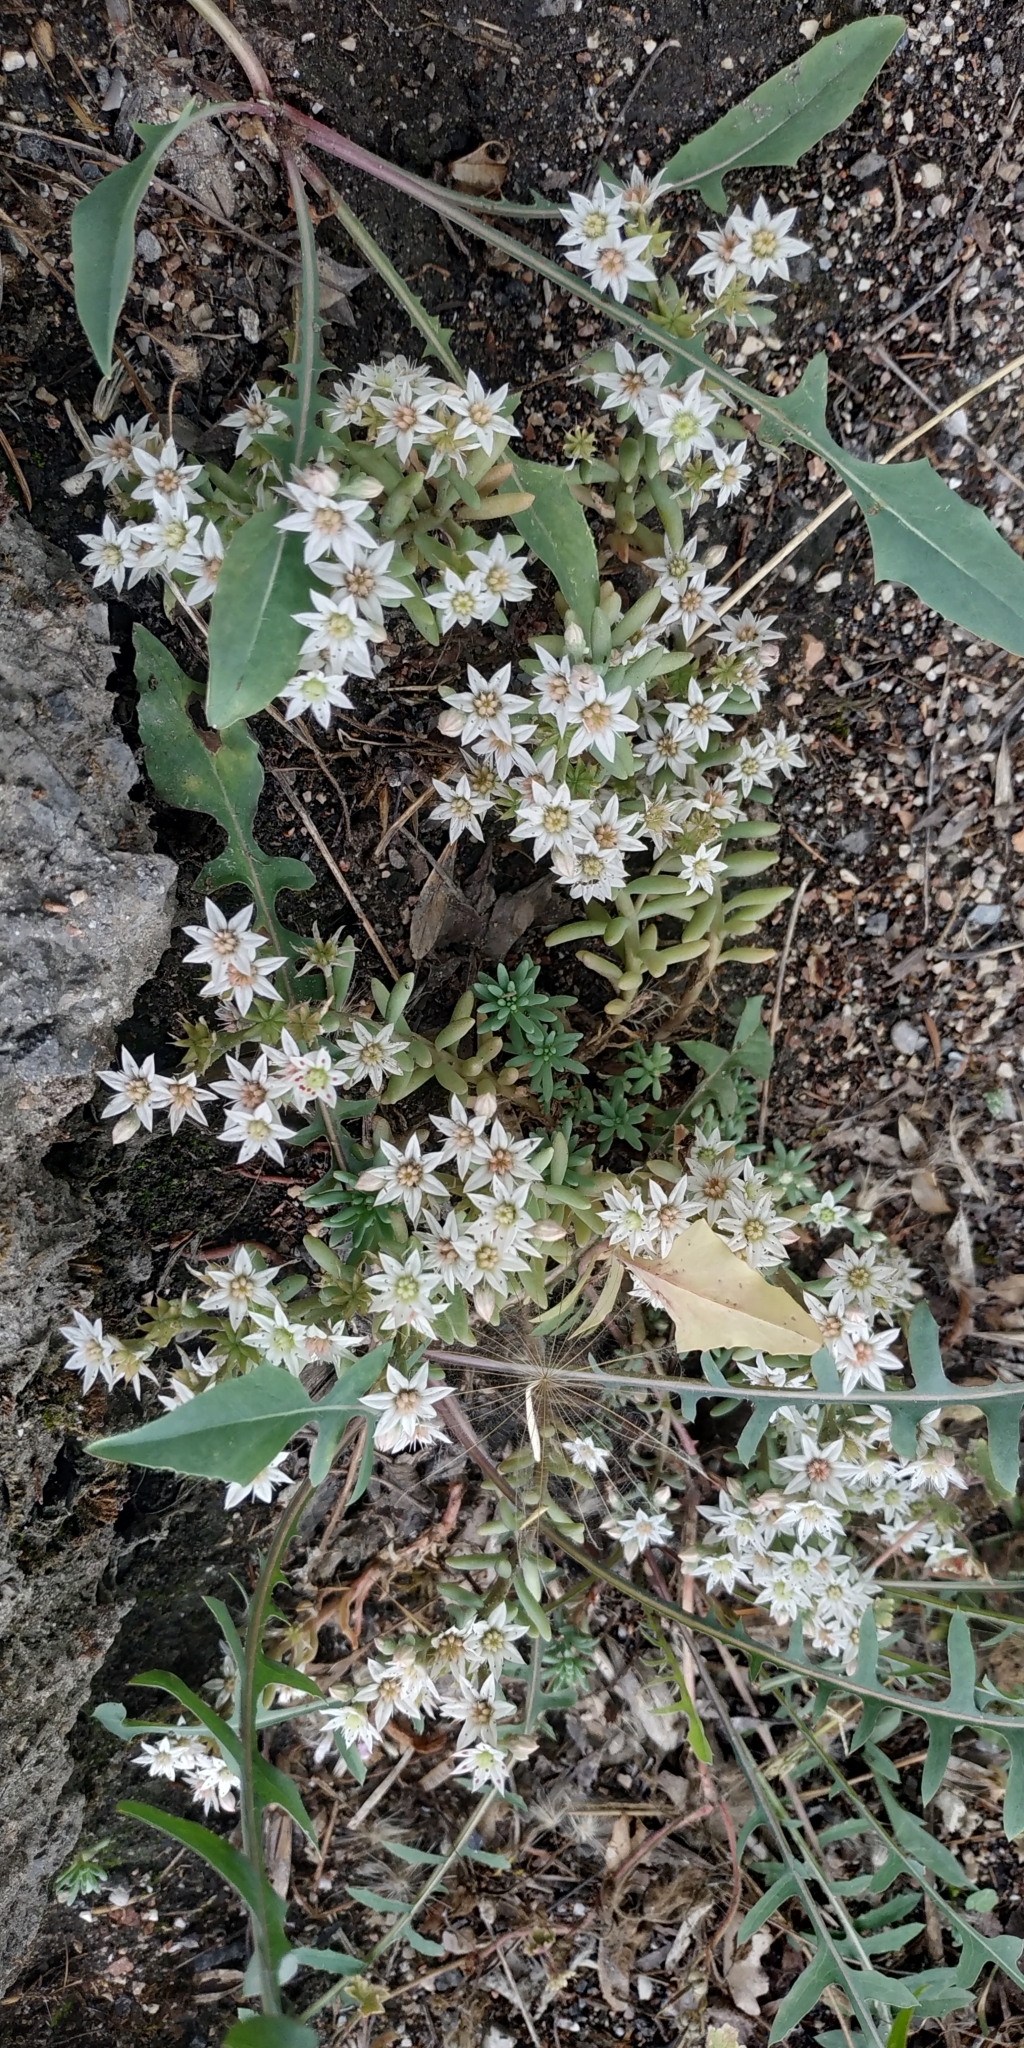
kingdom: Plantae
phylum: Tracheophyta
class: Magnoliopsida
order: Saxifragales
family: Crassulaceae
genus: Sedum
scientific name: Sedum hispanicum
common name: Spanish stonecrop
